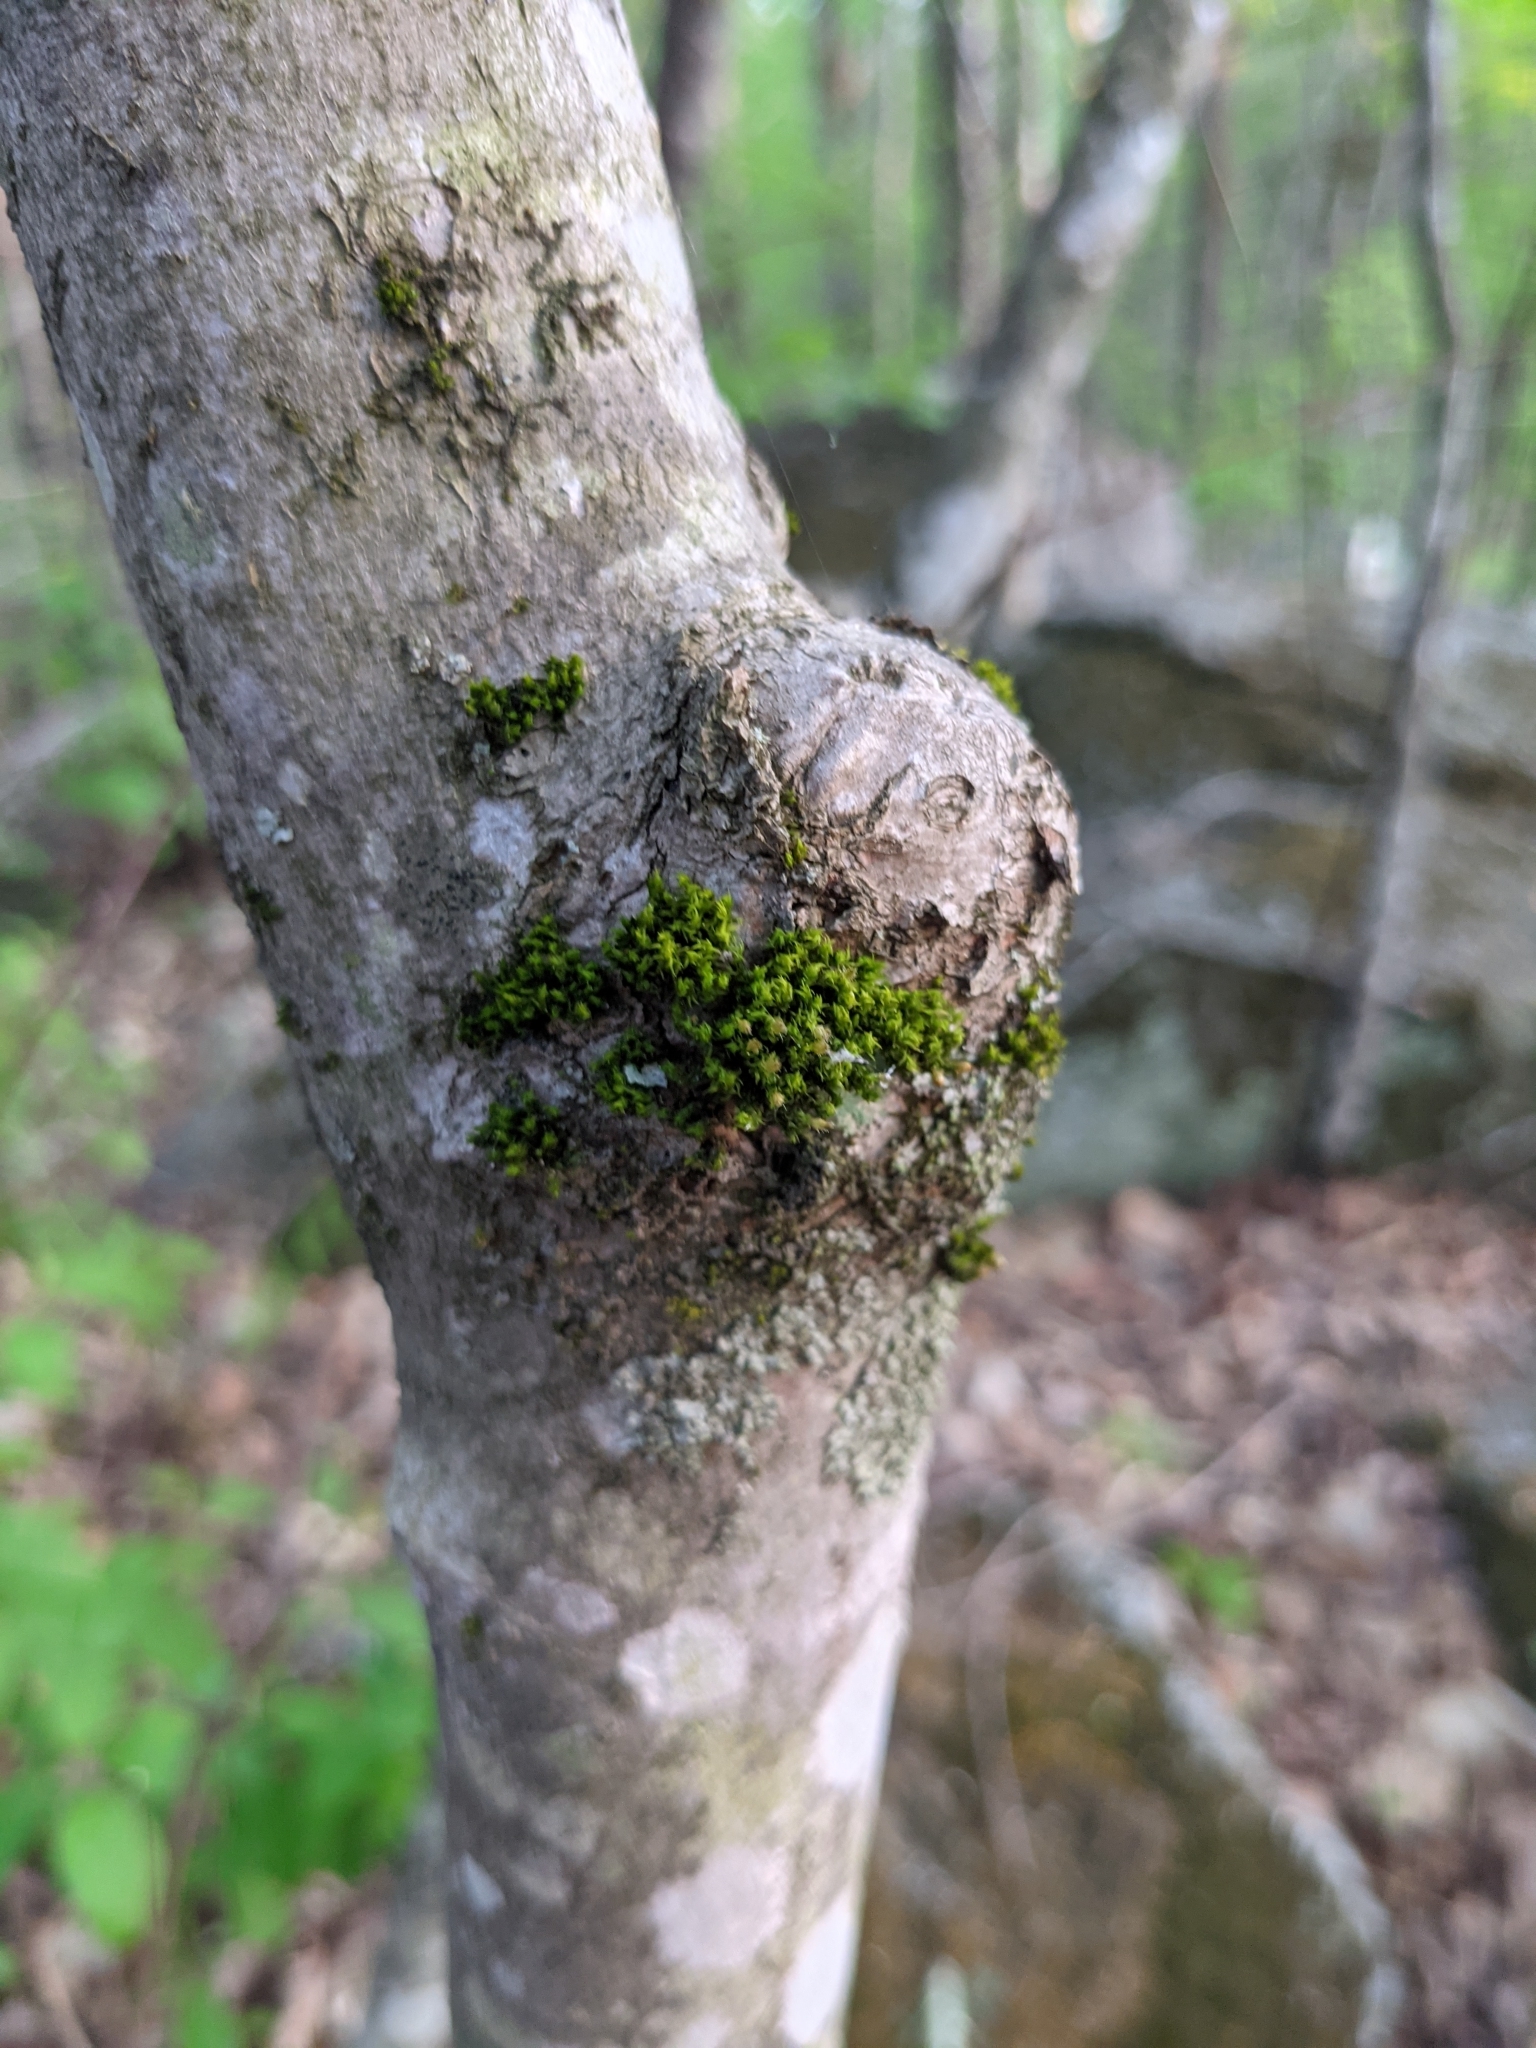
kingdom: Plantae
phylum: Bryophyta
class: Bryopsida
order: Orthotrichales
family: Orthotrichaceae
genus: Ulota
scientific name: Ulota crispa
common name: Crisped pincushion moss
